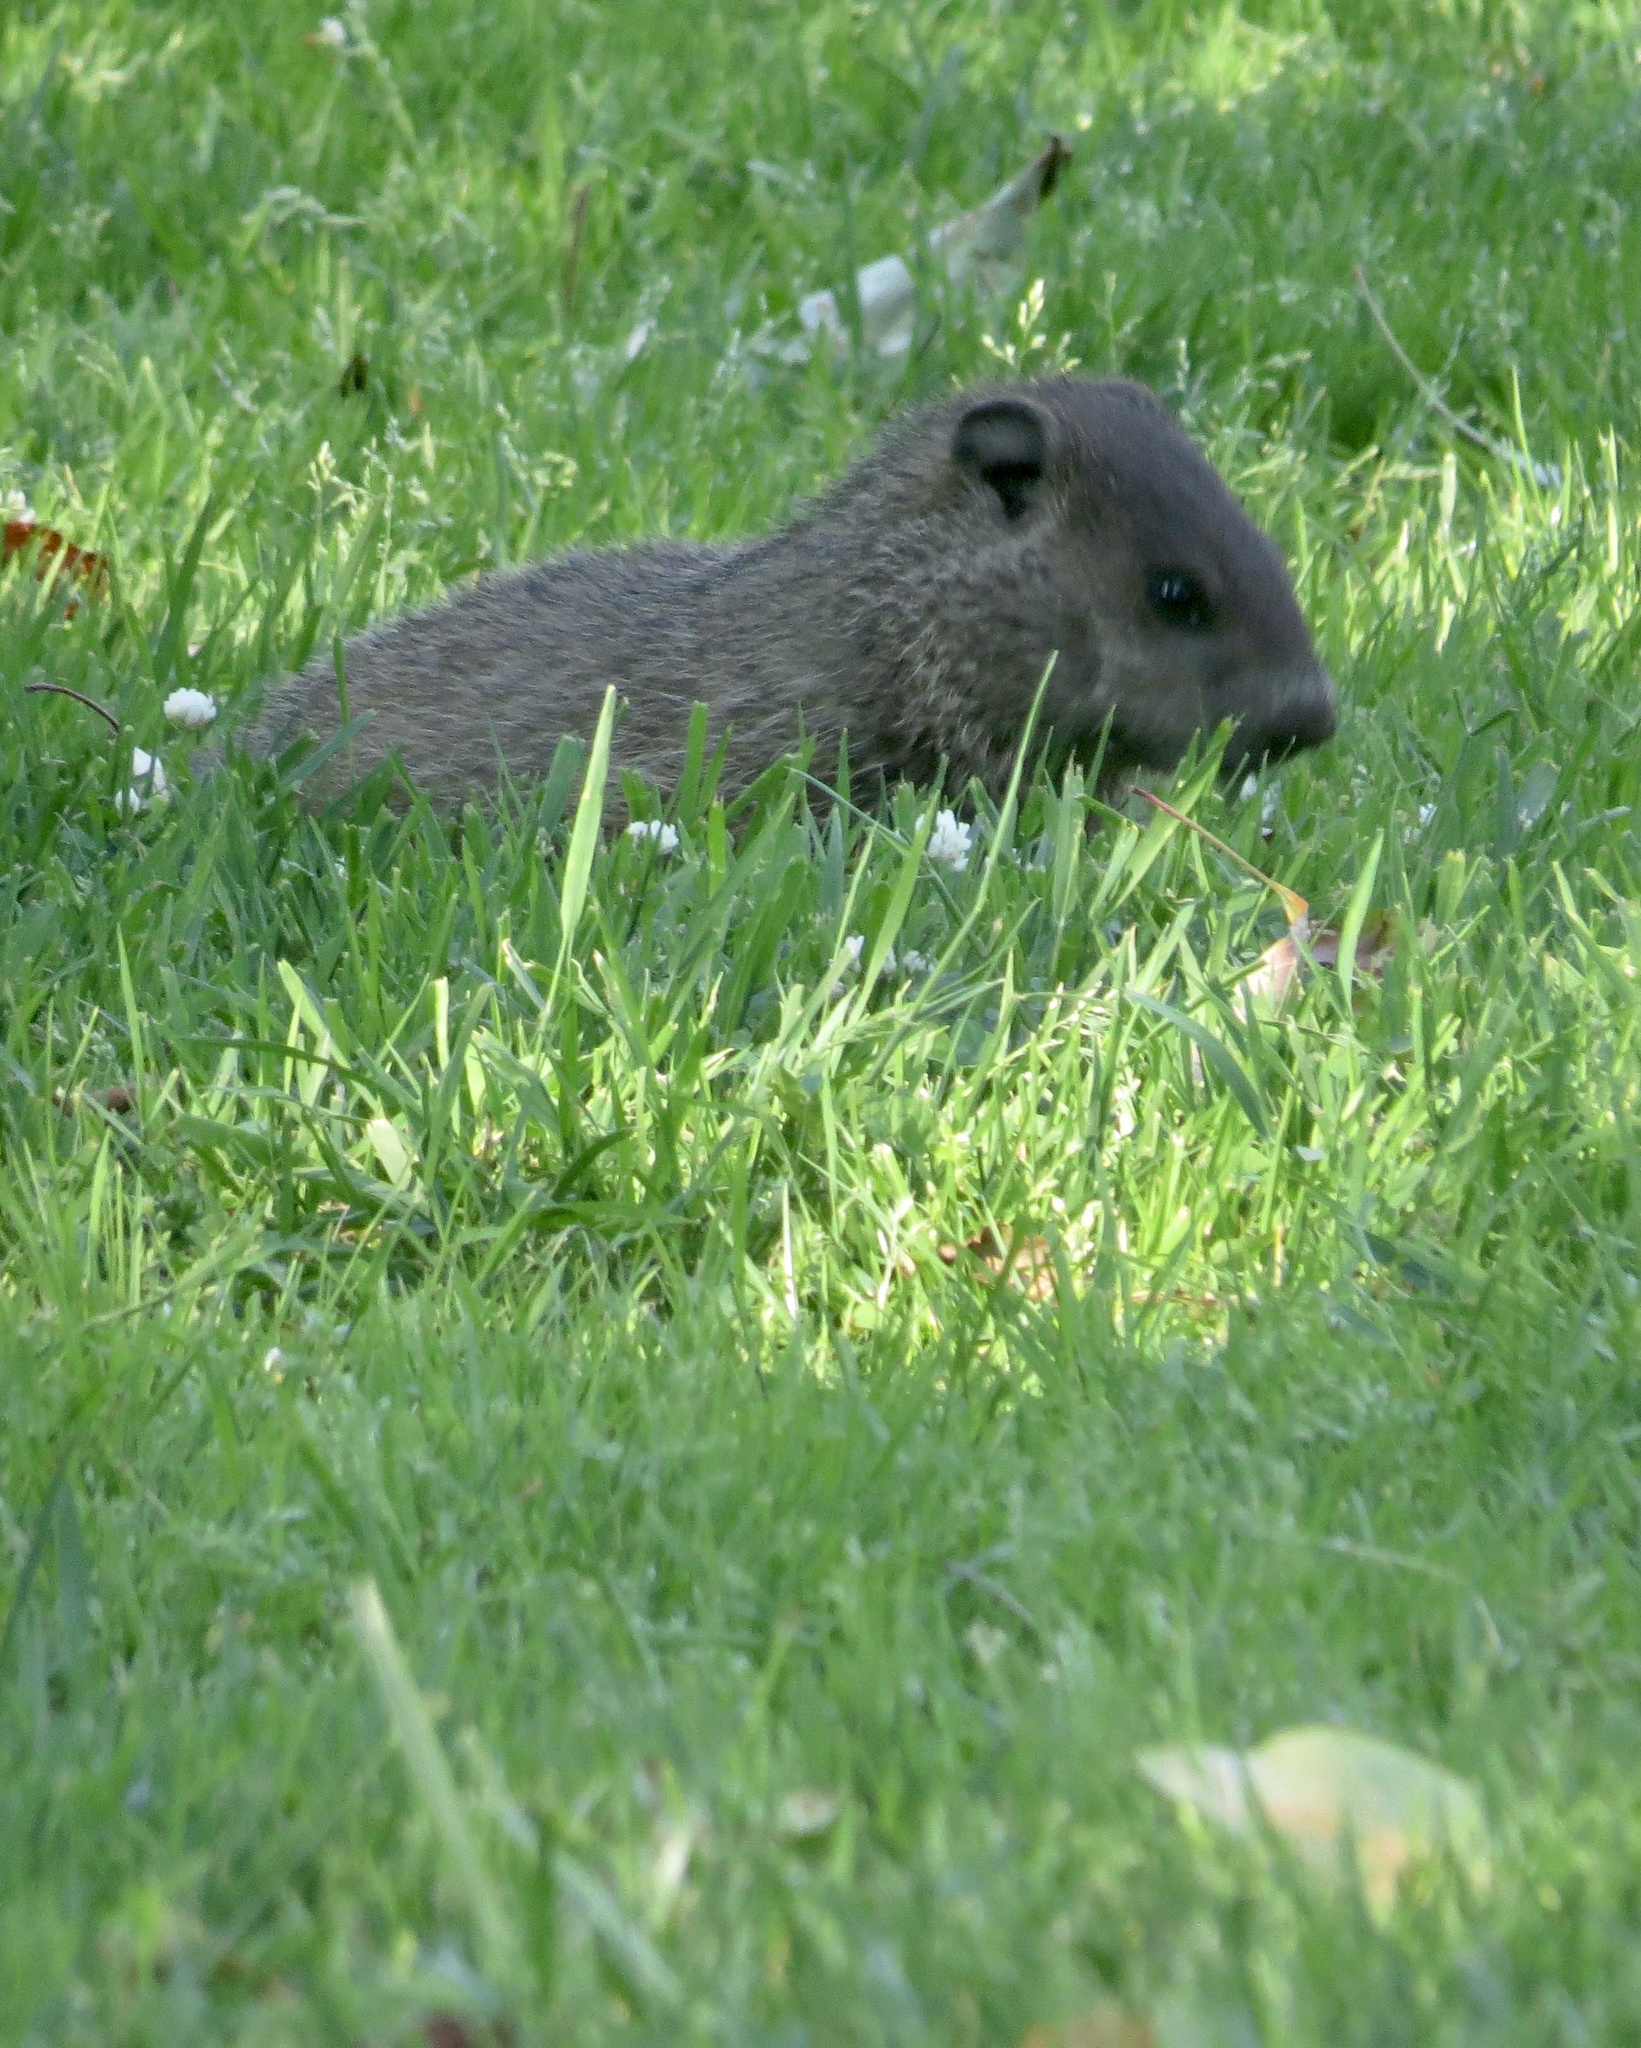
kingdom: Animalia
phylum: Chordata
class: Mammalia
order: Rodentia
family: Sciuridae
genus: Marmota
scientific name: Marmota monax
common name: Groundhog
